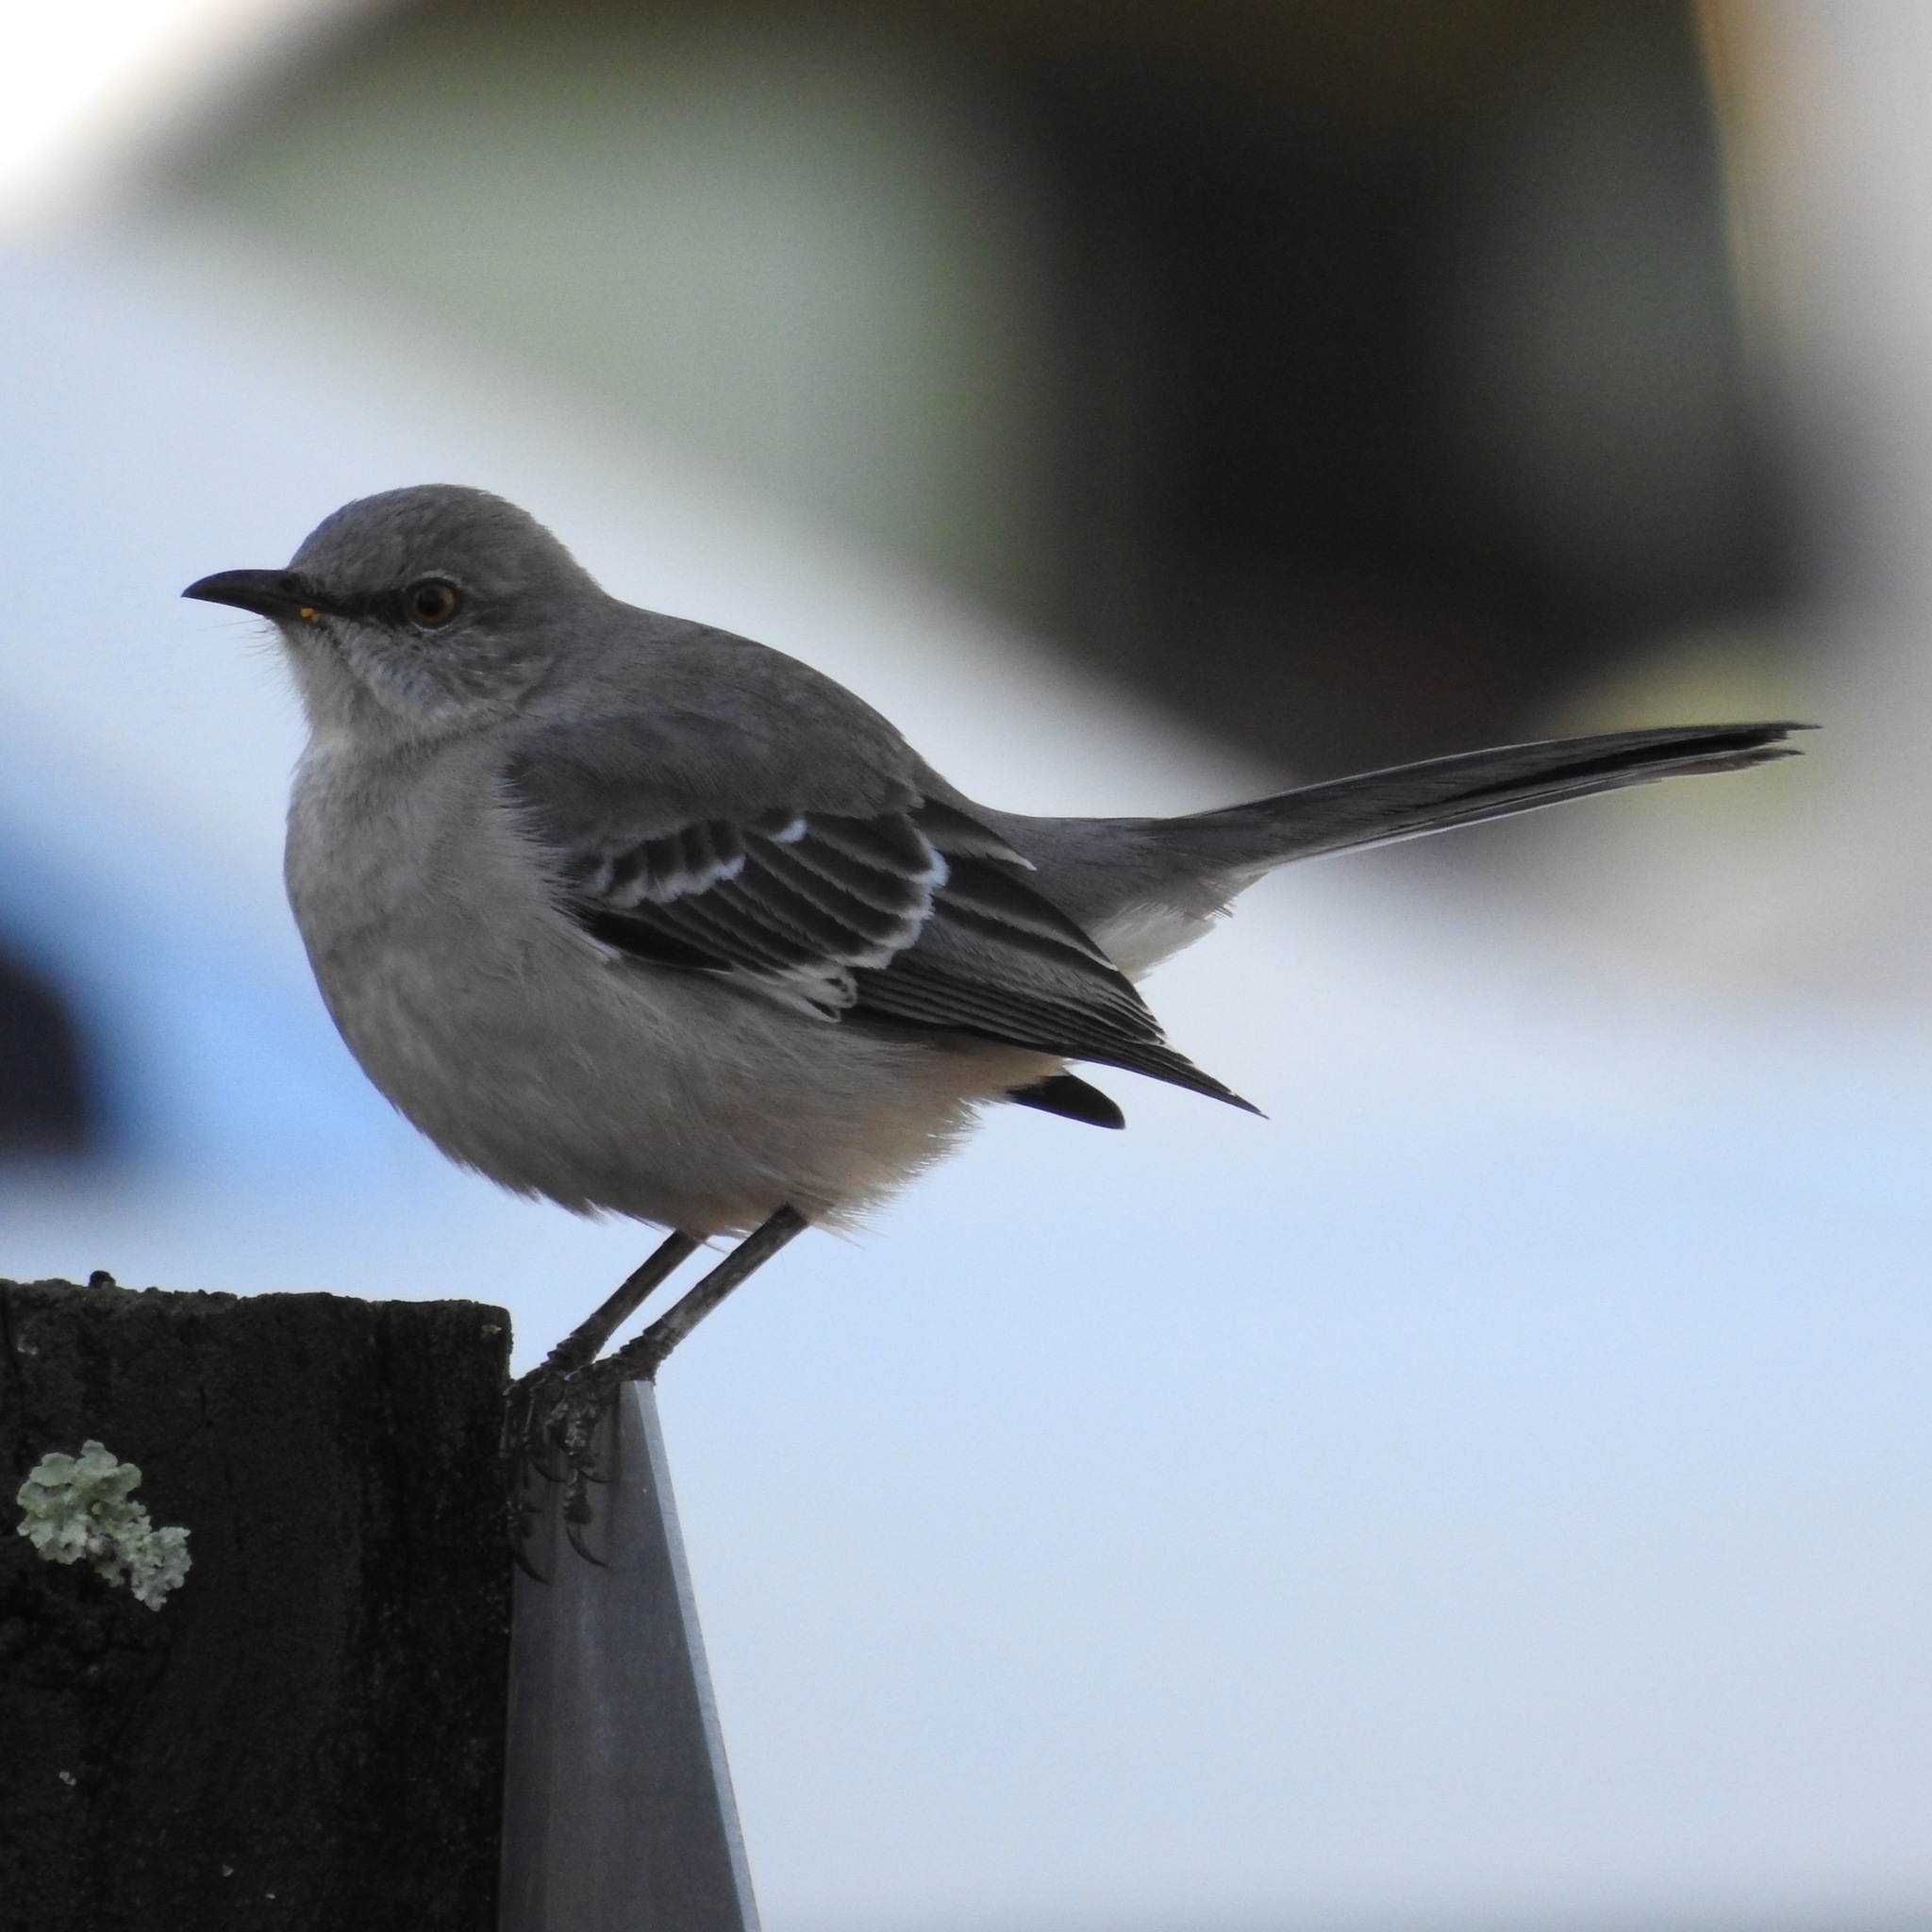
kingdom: Animalia
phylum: Chordata
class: Aves
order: Passeriformes
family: Mimidae
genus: Mimus
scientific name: Mimus polyglottos
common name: Northern mockingbird
